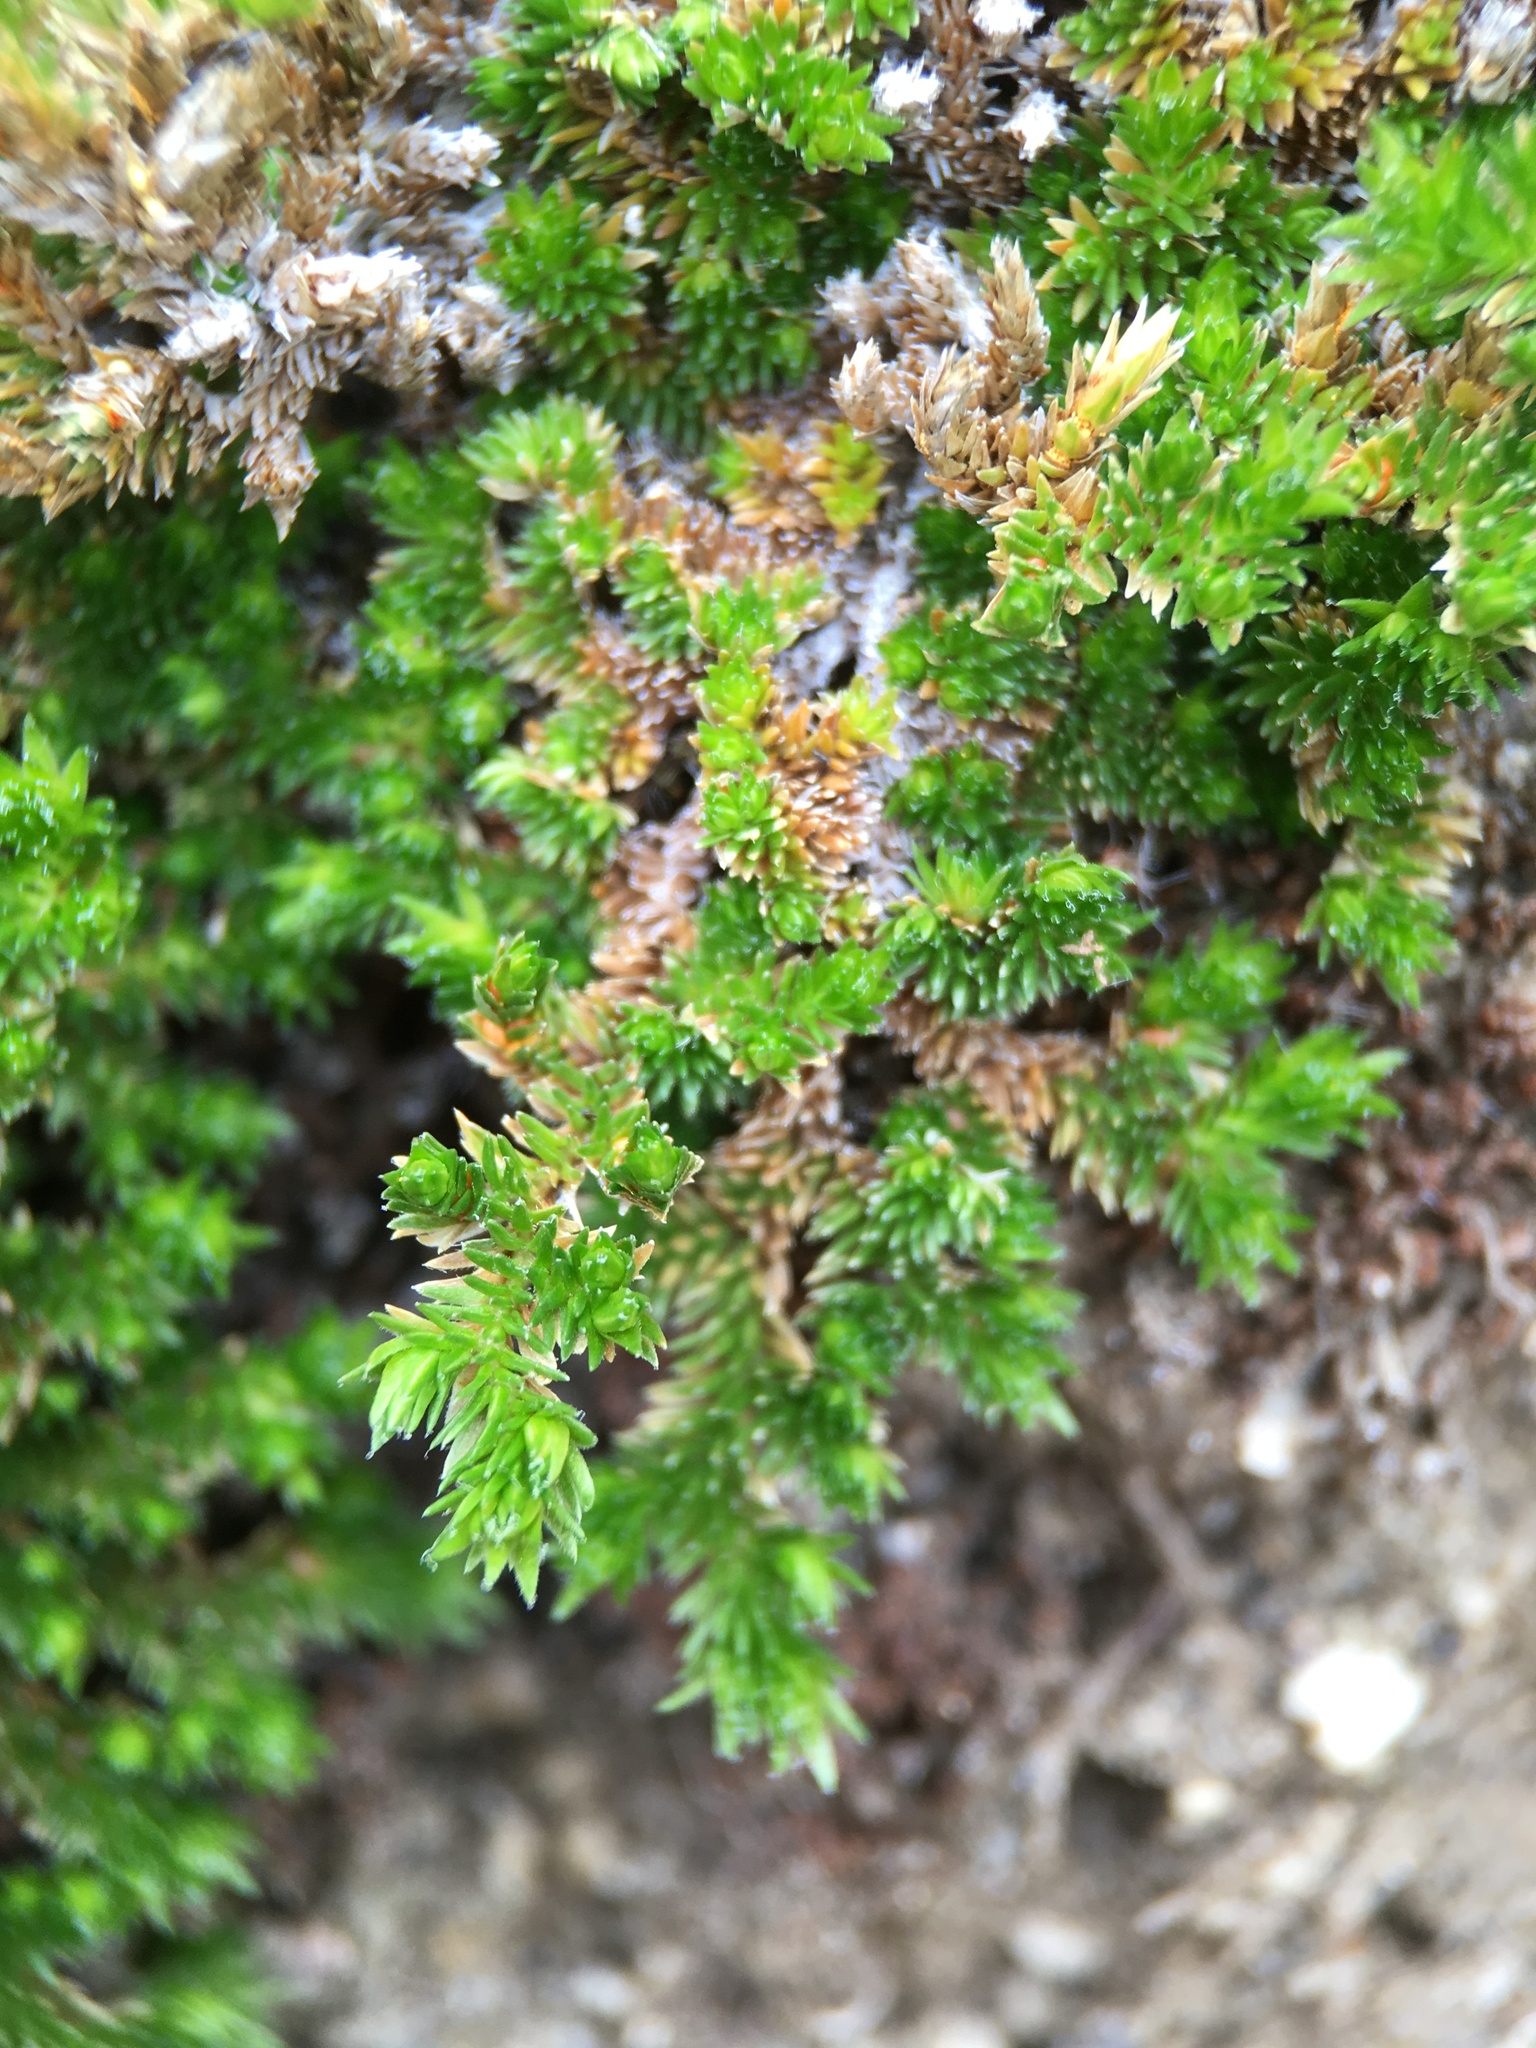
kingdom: Plantae
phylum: Tracheophyta
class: Lycopodiopsida
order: Selaginellales
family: Selaginellaceae
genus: Selaginella
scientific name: Selaginella eremophila
